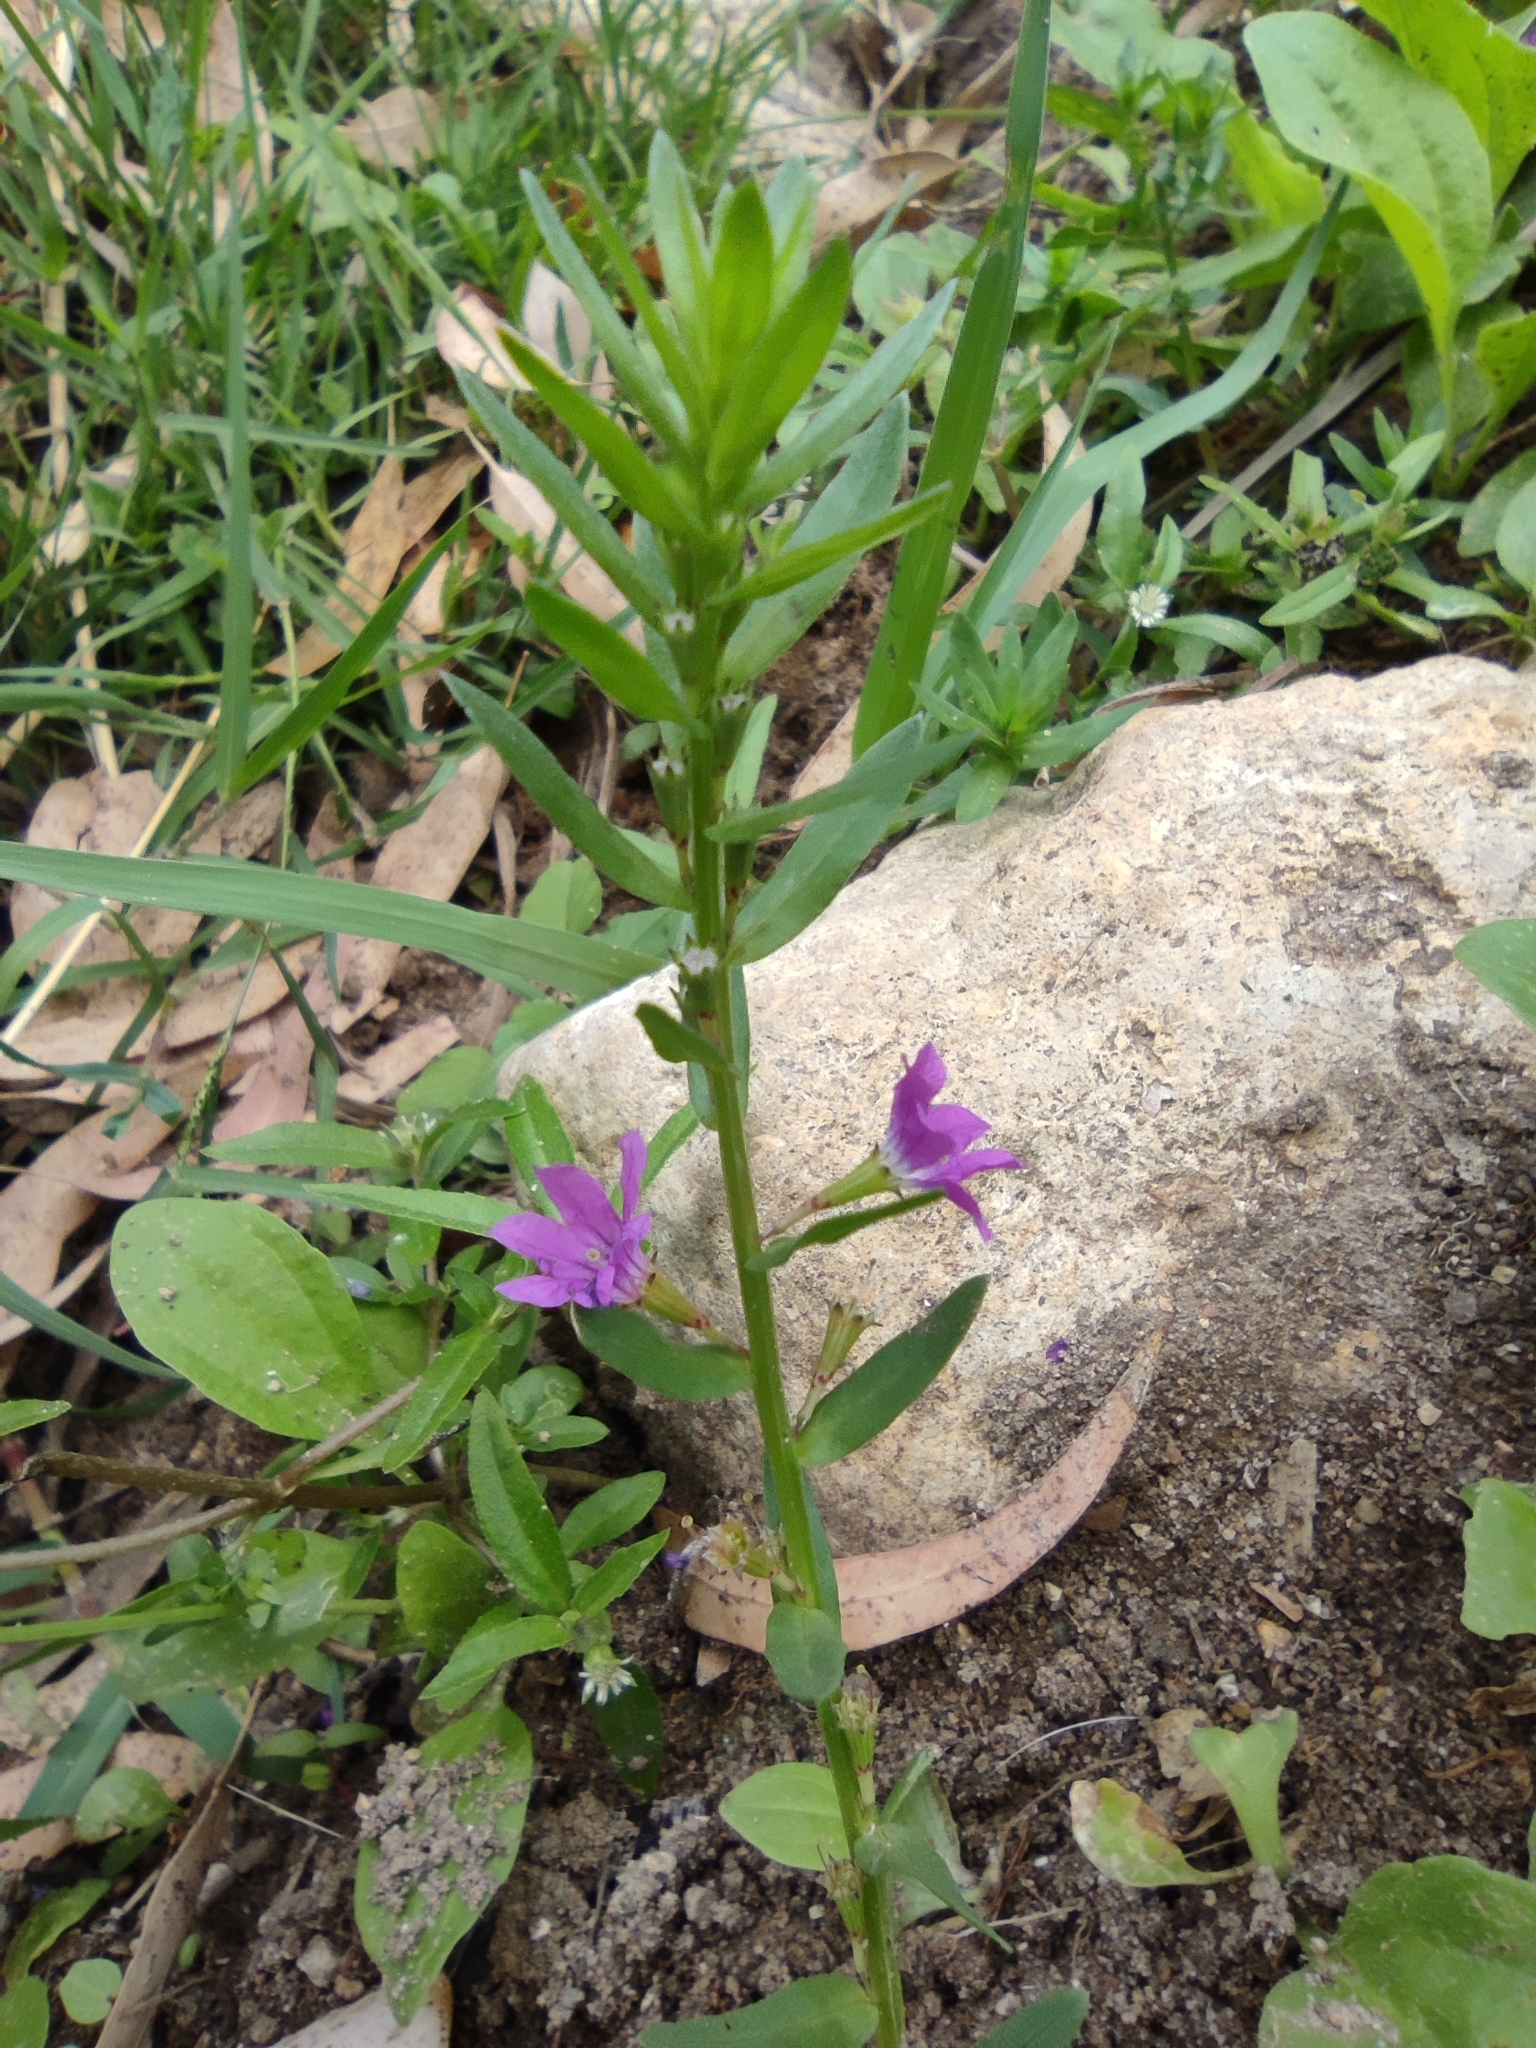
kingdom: Plantae
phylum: Tracheophyta
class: Magnoliopsida
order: Myrtales
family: Lythraceae
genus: Lythrum
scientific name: Lythrum junceum
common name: False grass-poly
